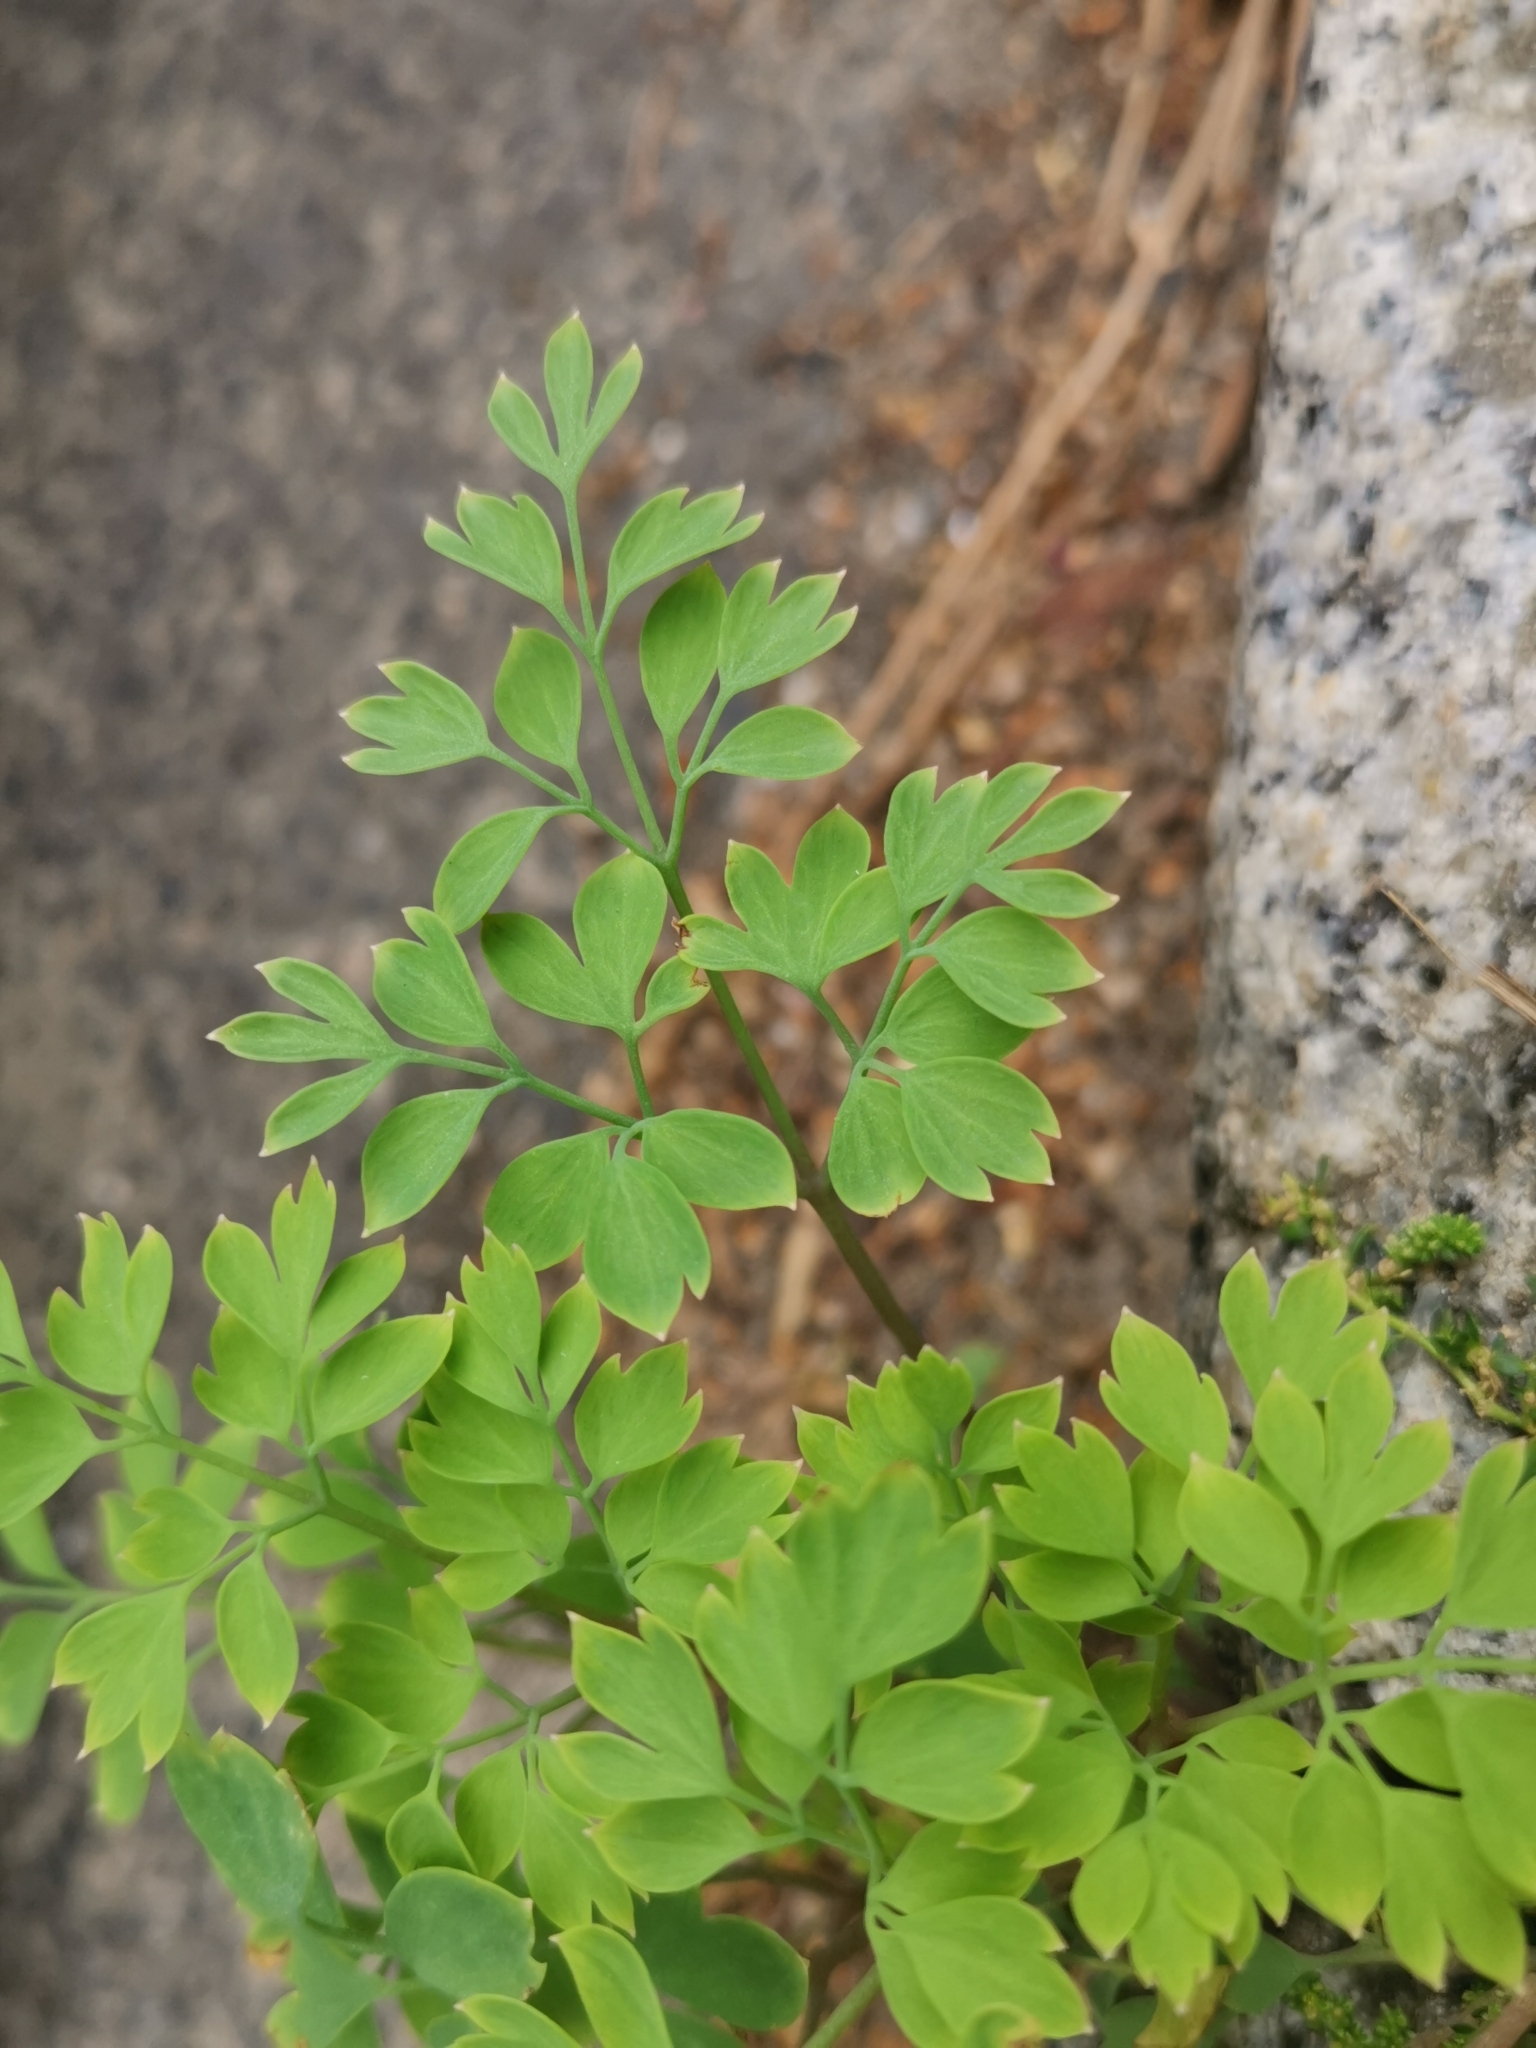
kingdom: Plantae
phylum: Tracheophyta
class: Magnoliopsida
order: Ranunculales
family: Papaveraceae
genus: Pseudofumaria
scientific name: Pseudofumaria lutea
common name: Yellow corydalis
